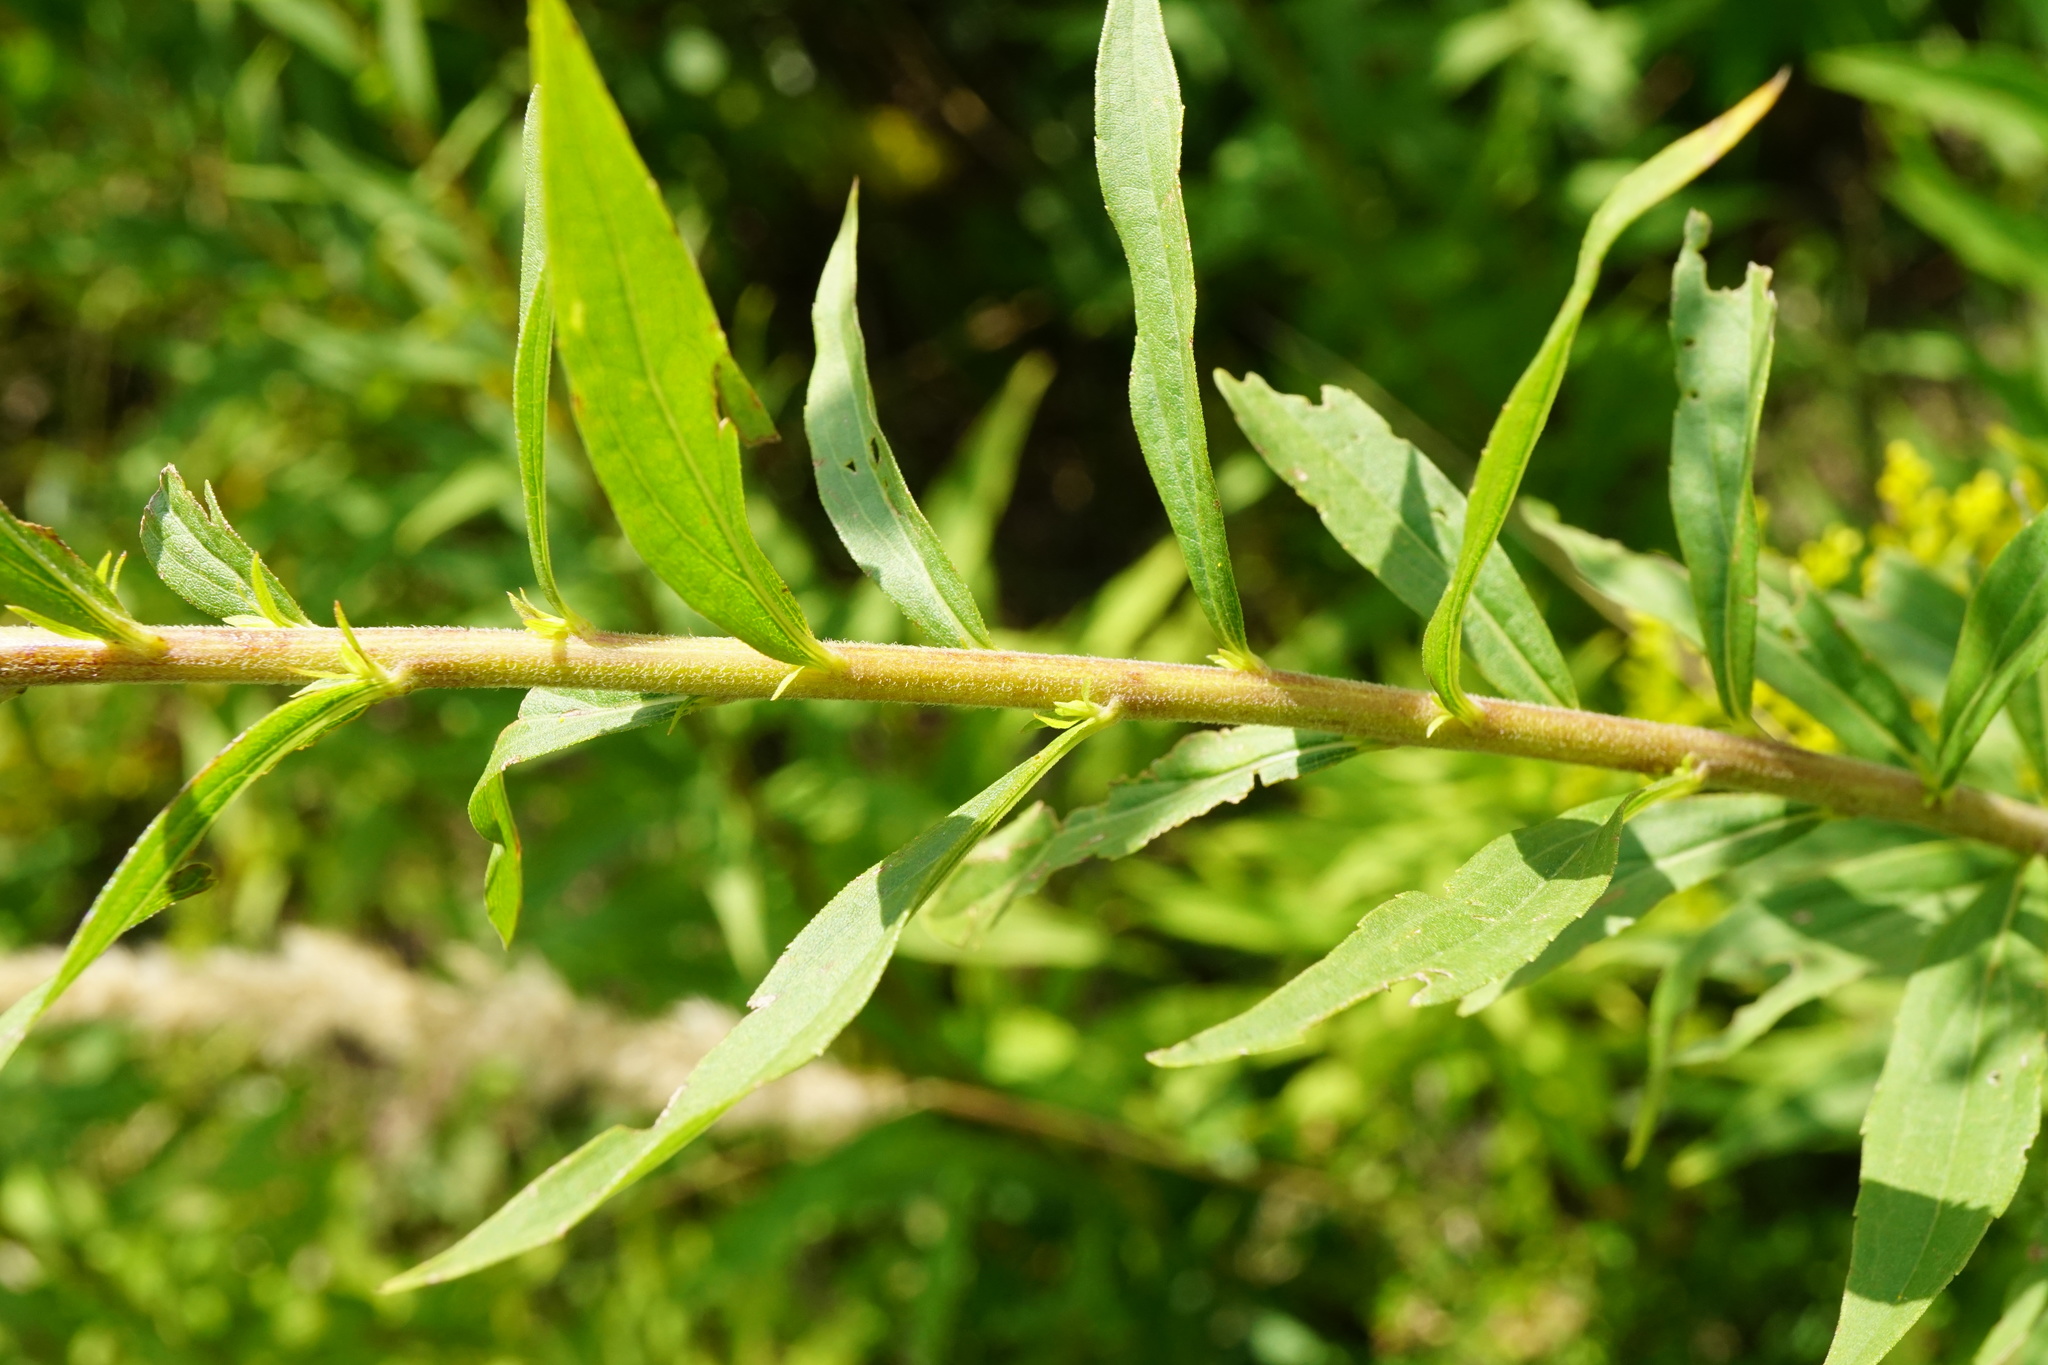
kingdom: Plantae
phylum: Tracheophyta
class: Magnoliopsida
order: Asterales
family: Asteraceae
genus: Solidago
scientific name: Solidago canadensis
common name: Canada goldenrod
